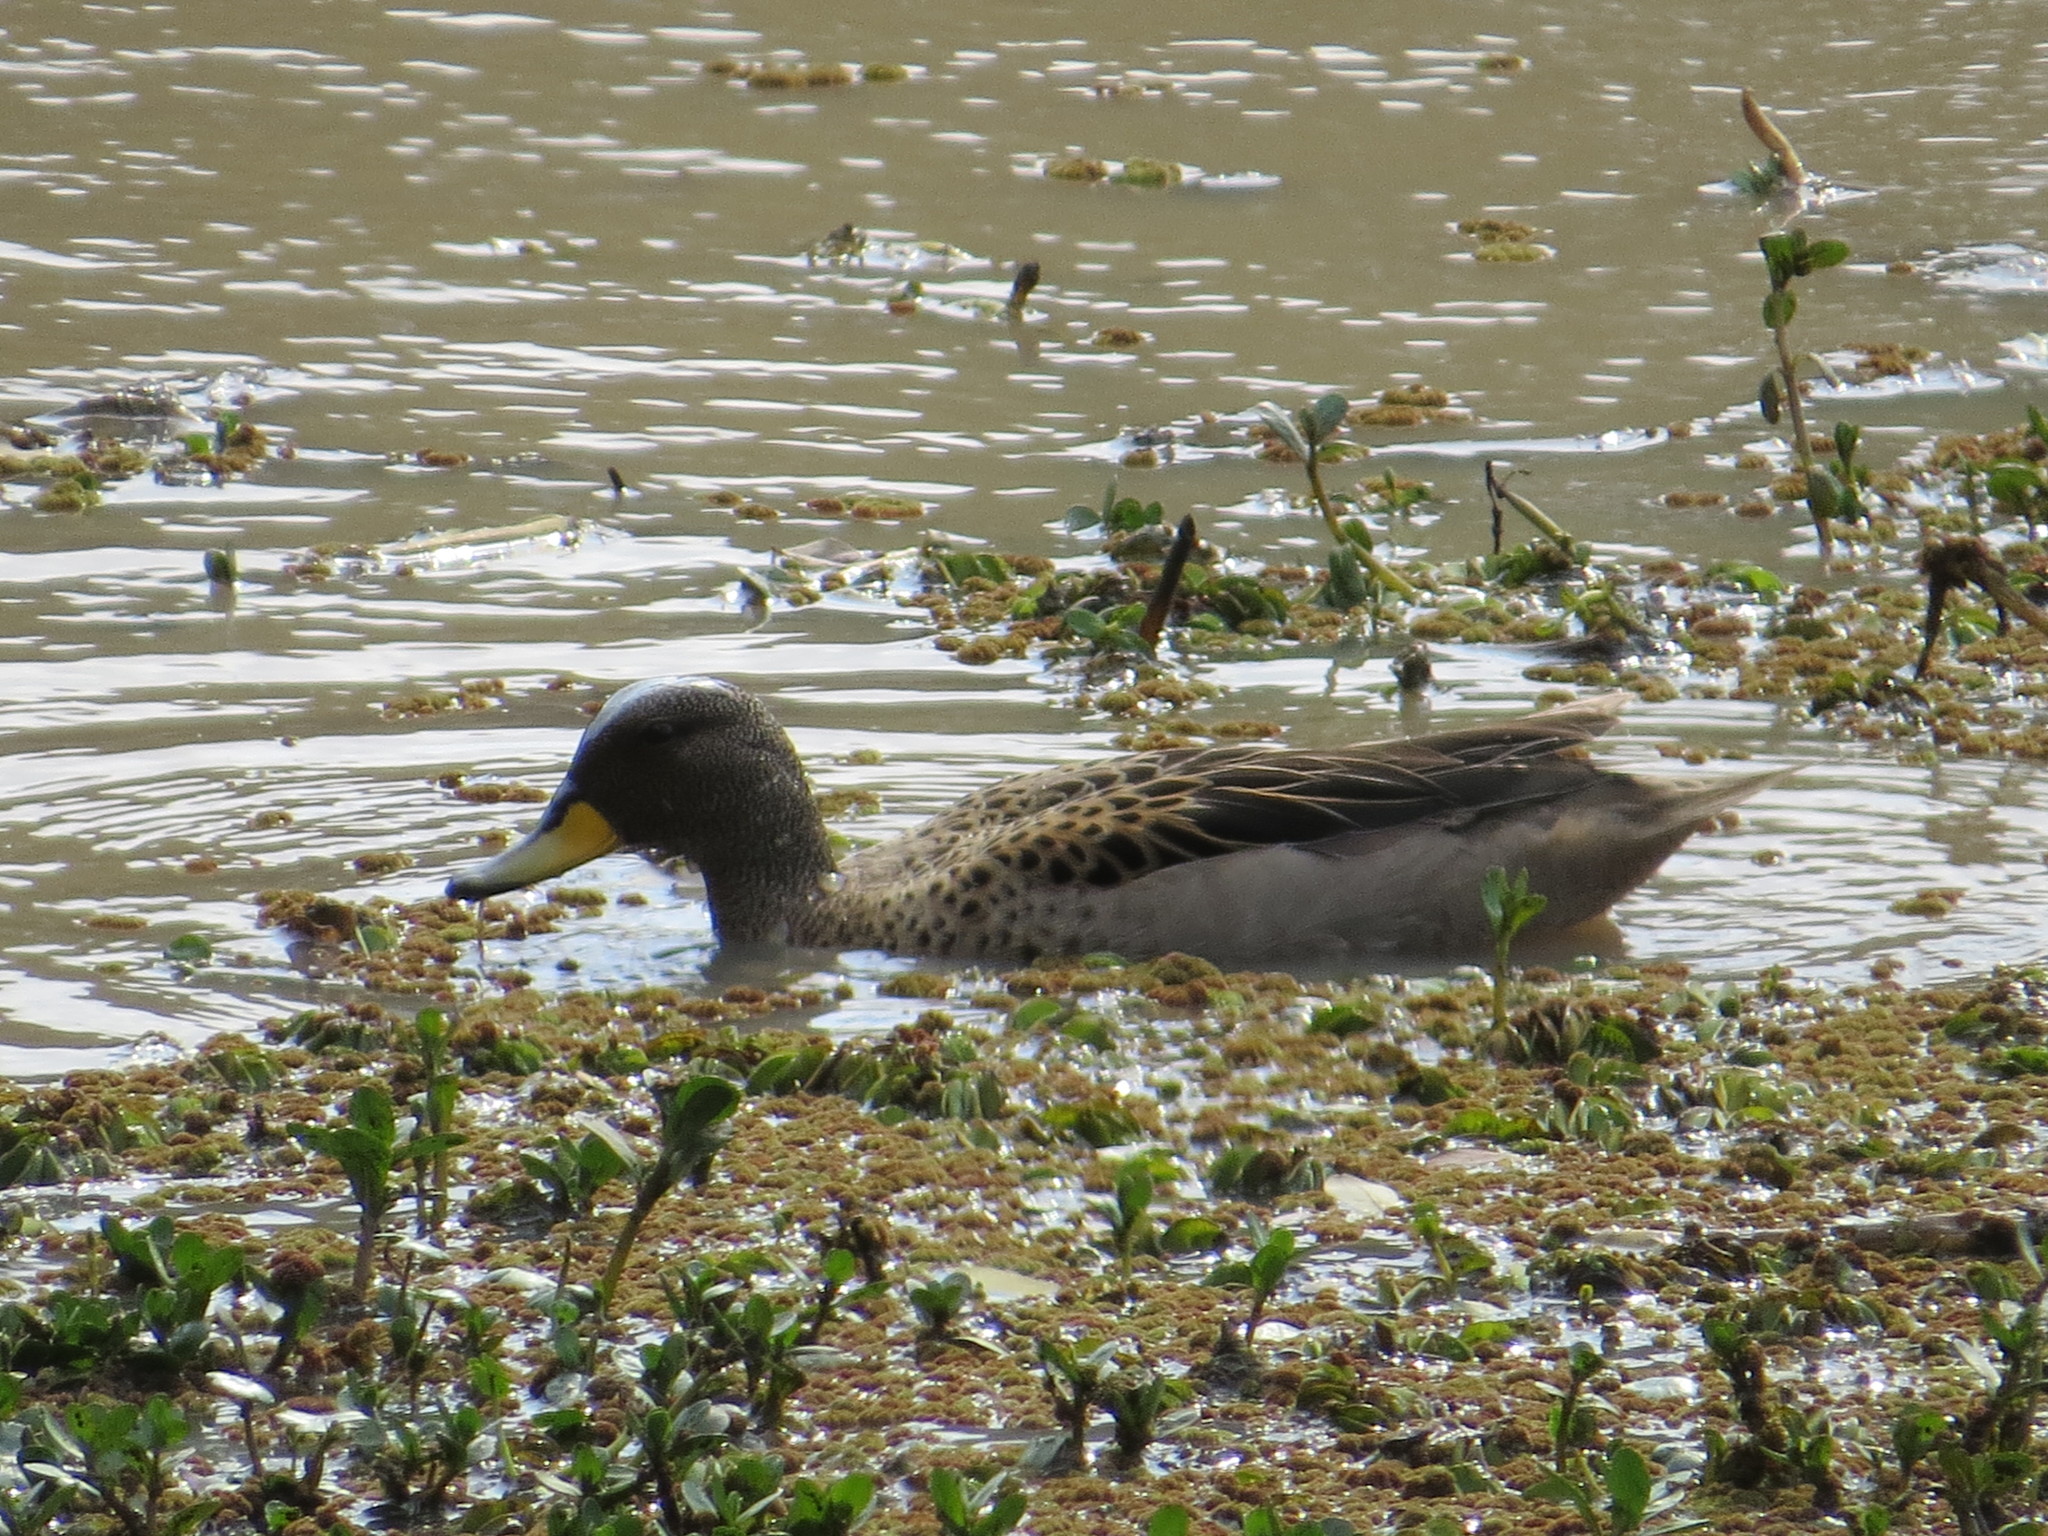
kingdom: Animalia
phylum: Chordata
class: Aves
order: Anseriformes
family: Anatidae
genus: Anas
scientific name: Anas flavirostris
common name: Yellow-billed teal
